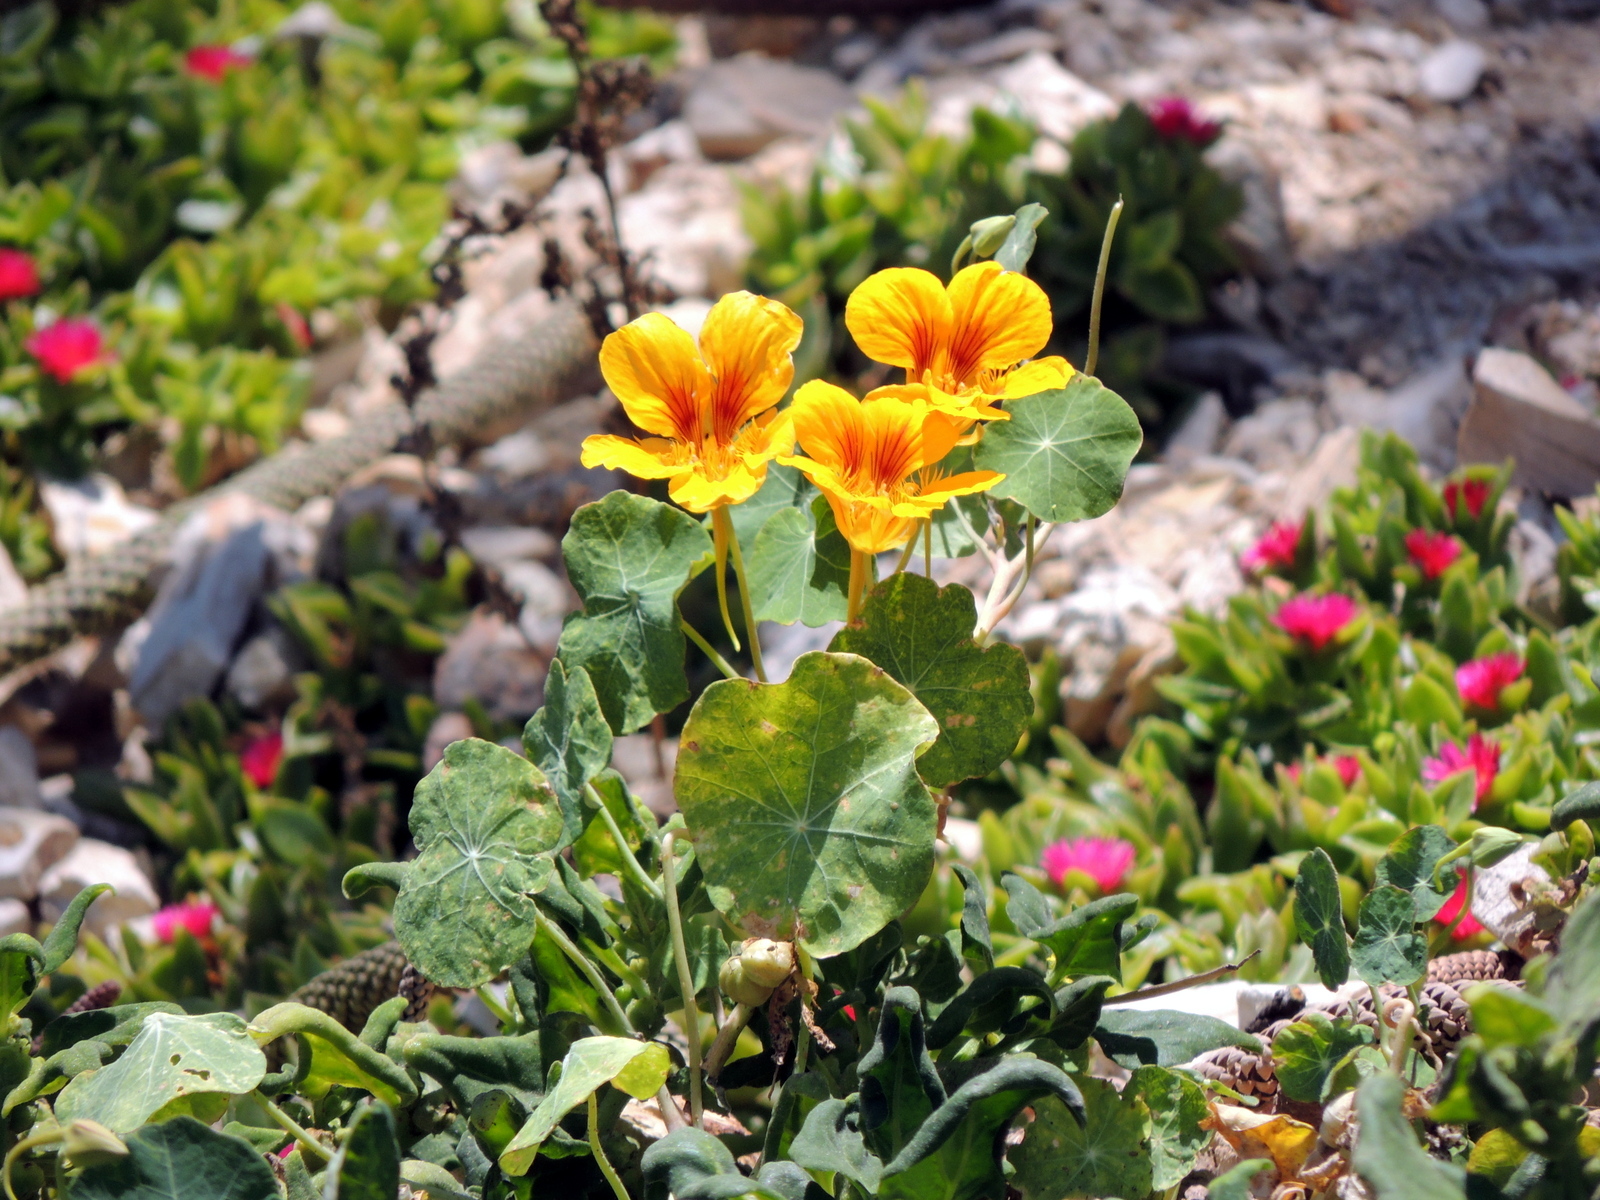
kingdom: Plantae
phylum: Tracheophyta
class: Magnoliopsida
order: Brassicales
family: Tropaeolaceae
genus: Tropaeolum
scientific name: Tropaeolum majus
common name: Nasturtium
